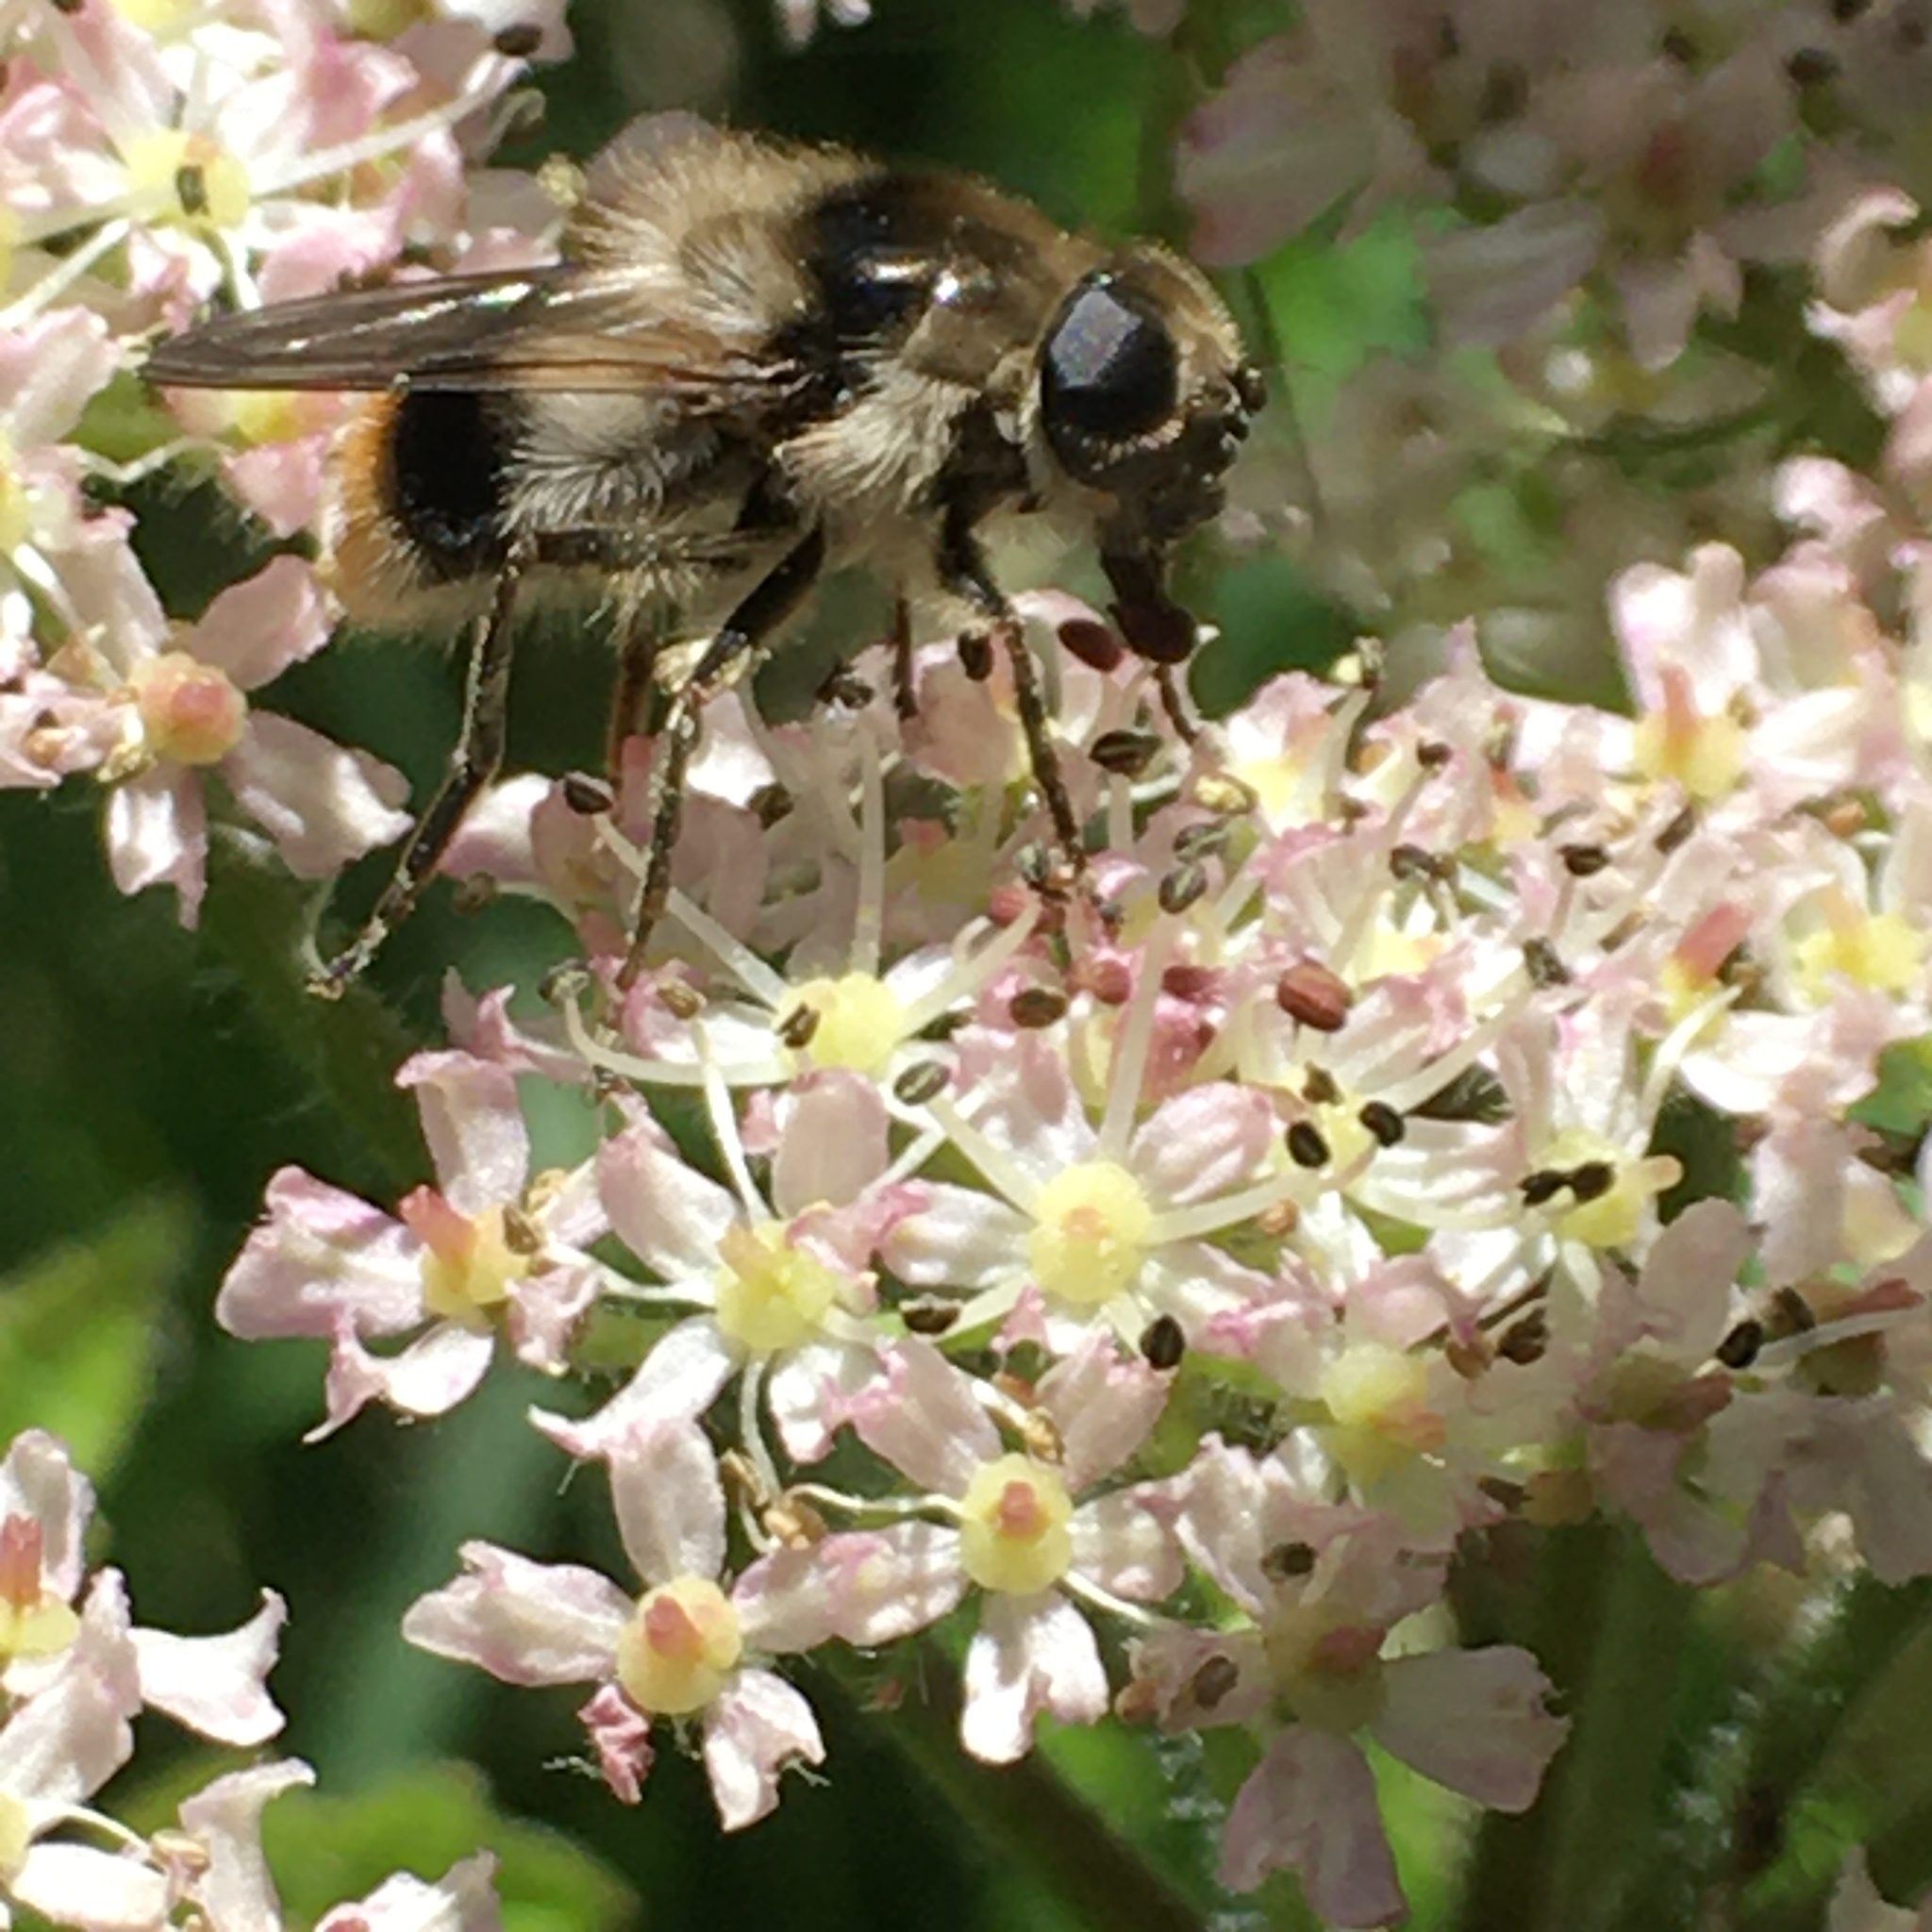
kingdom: Animalia
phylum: Arthropoda
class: Insecta
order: Diptera
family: Syrphidae
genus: Cheilosia
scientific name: Cheilosia illustrata
